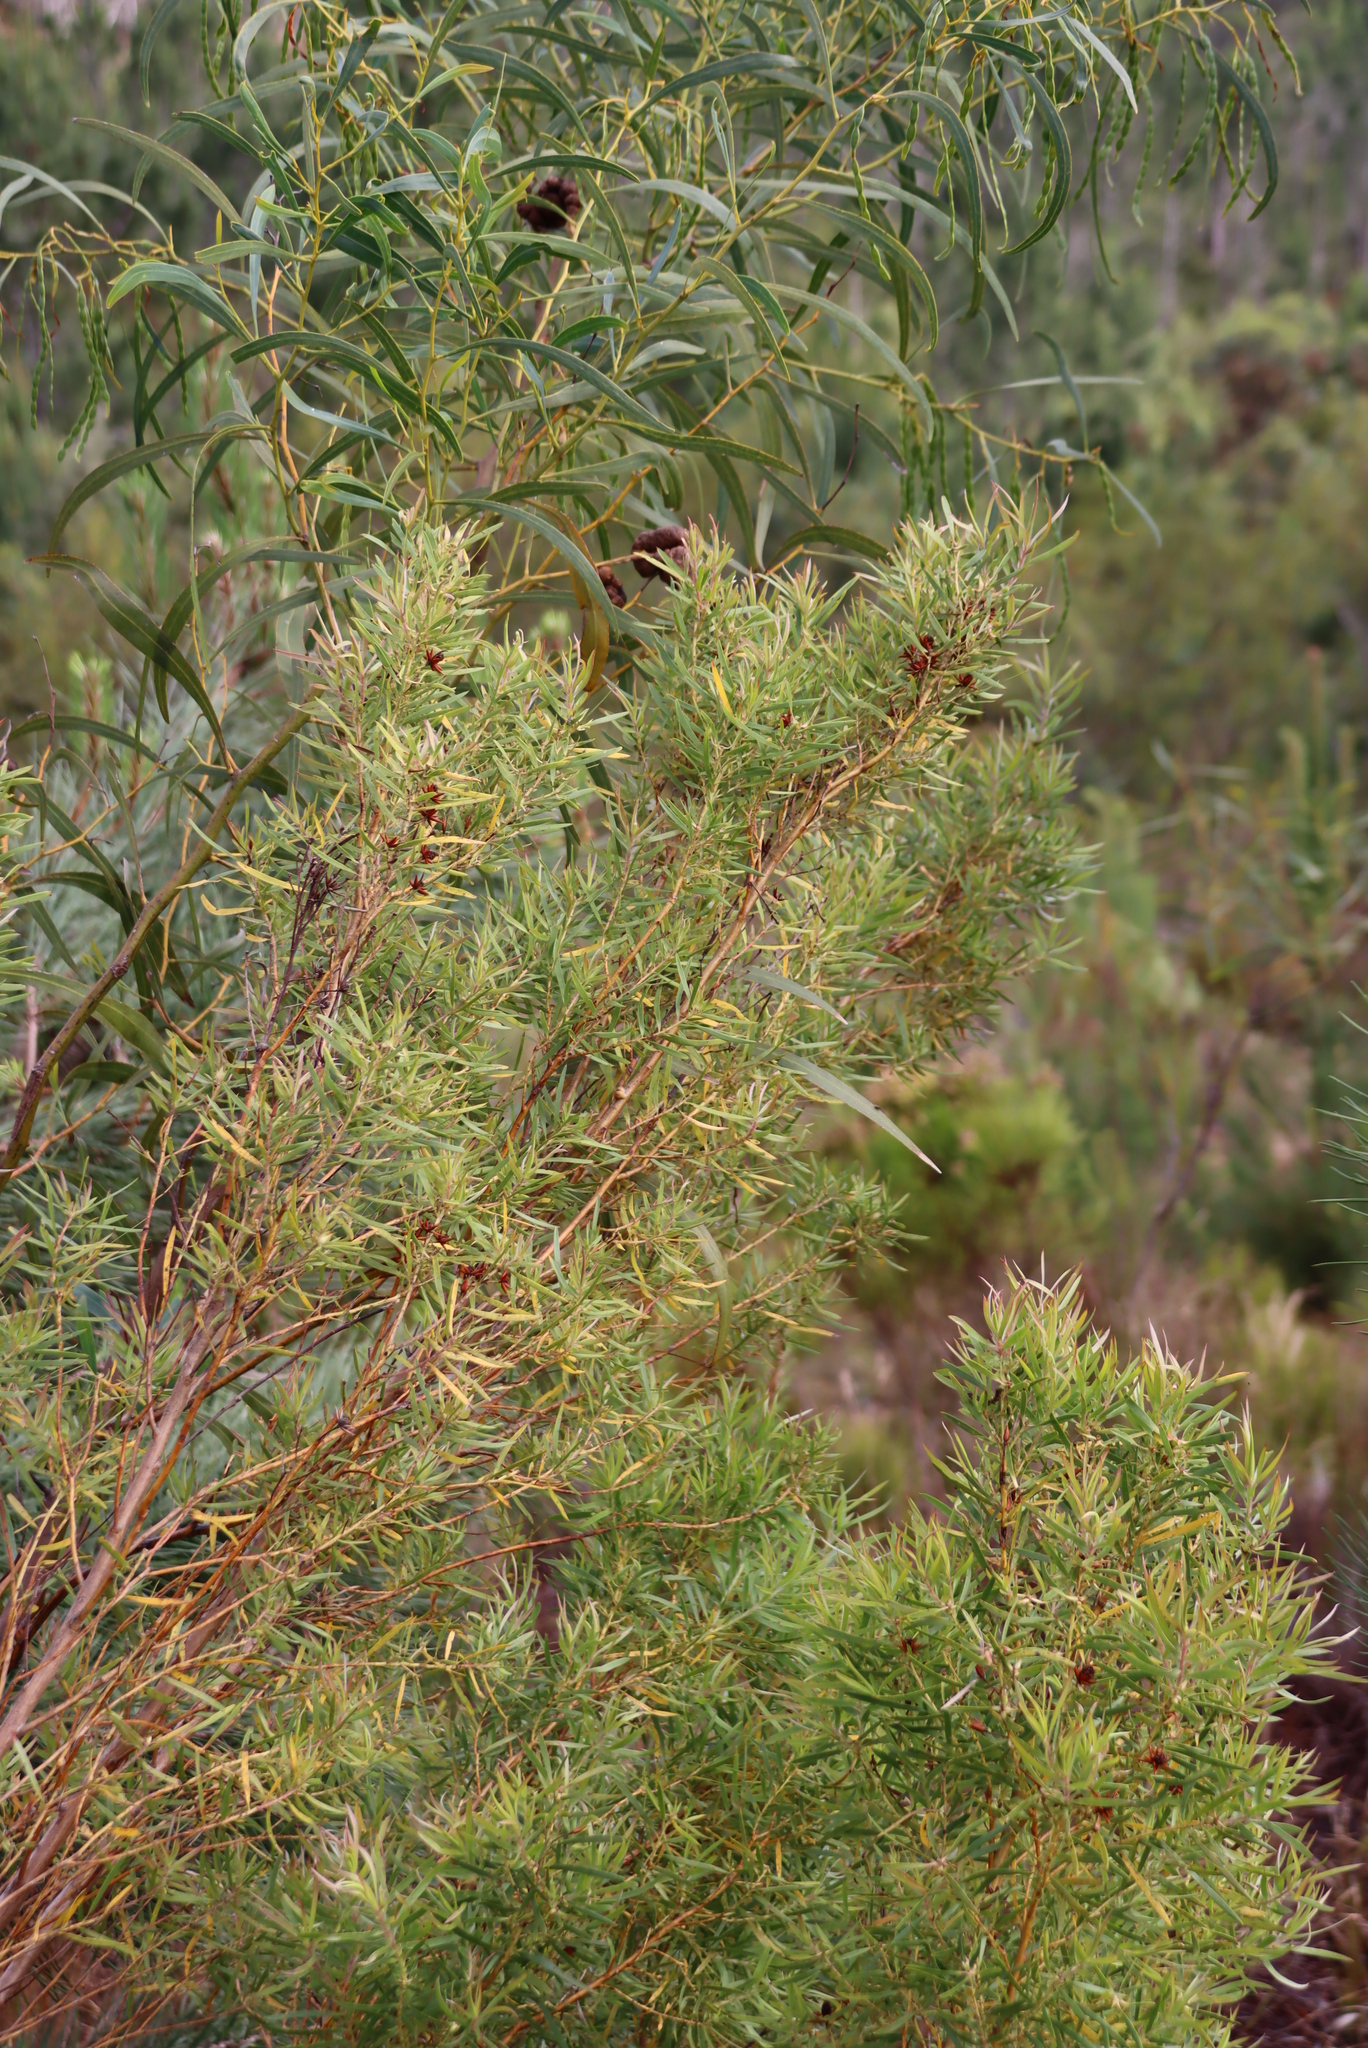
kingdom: Plantae
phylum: Tracheophyta
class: Magnoliopsida
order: Proteales
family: Proteaceae
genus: Leucadendron
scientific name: Leucadendron salicifolium
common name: Common stream conebush
